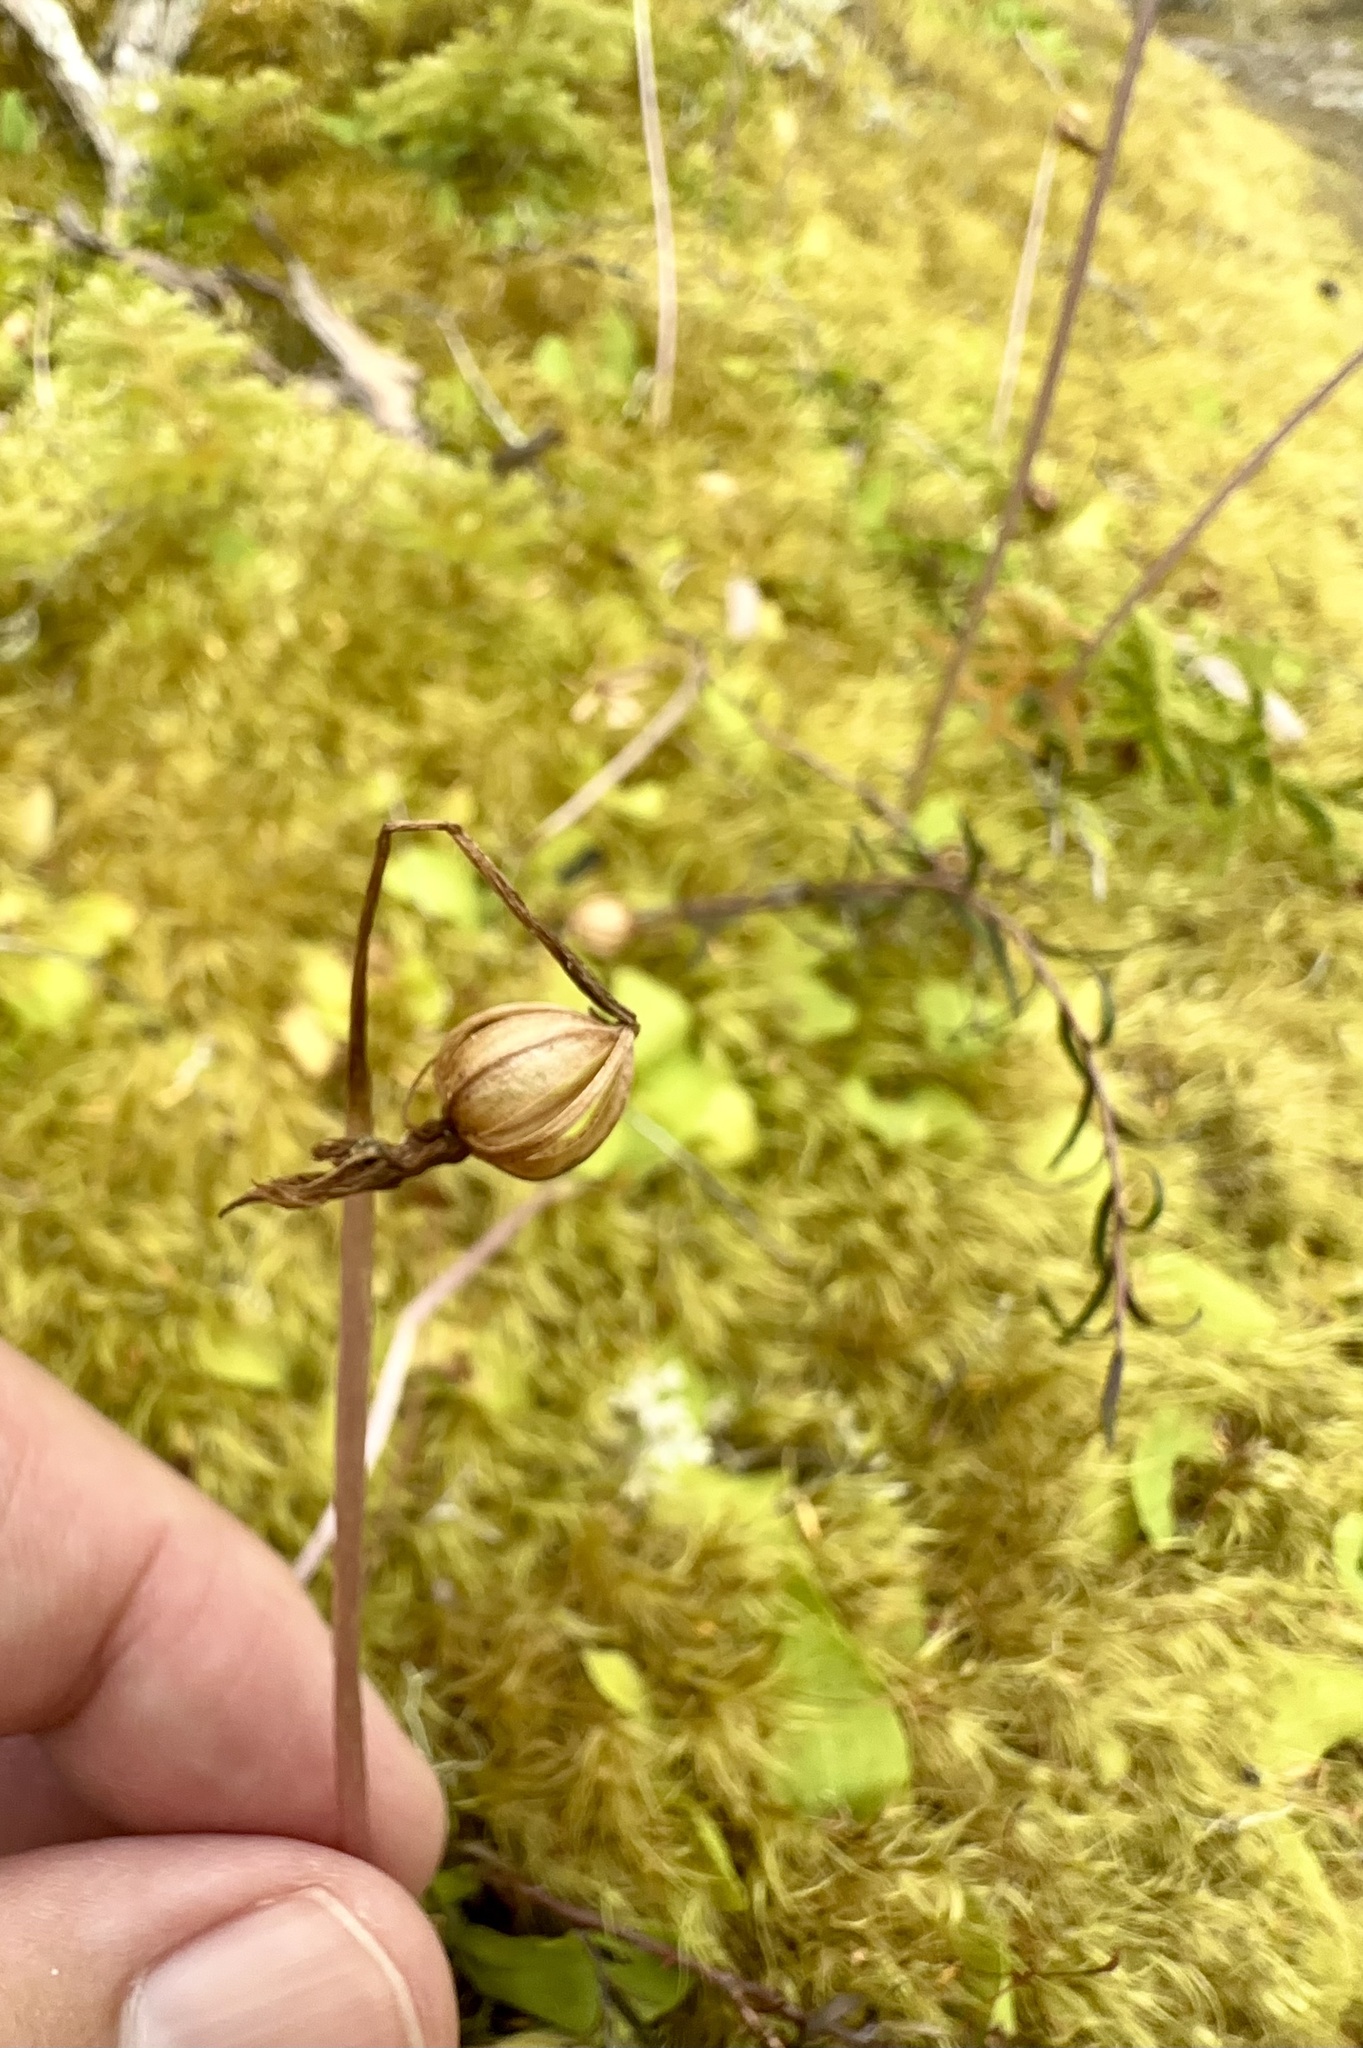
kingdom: Plantae
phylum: Tracheophyta
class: Liliopsida
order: Asparagales
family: Orchidaceae
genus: Chiloglottis
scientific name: Chiloglottis cornuta
